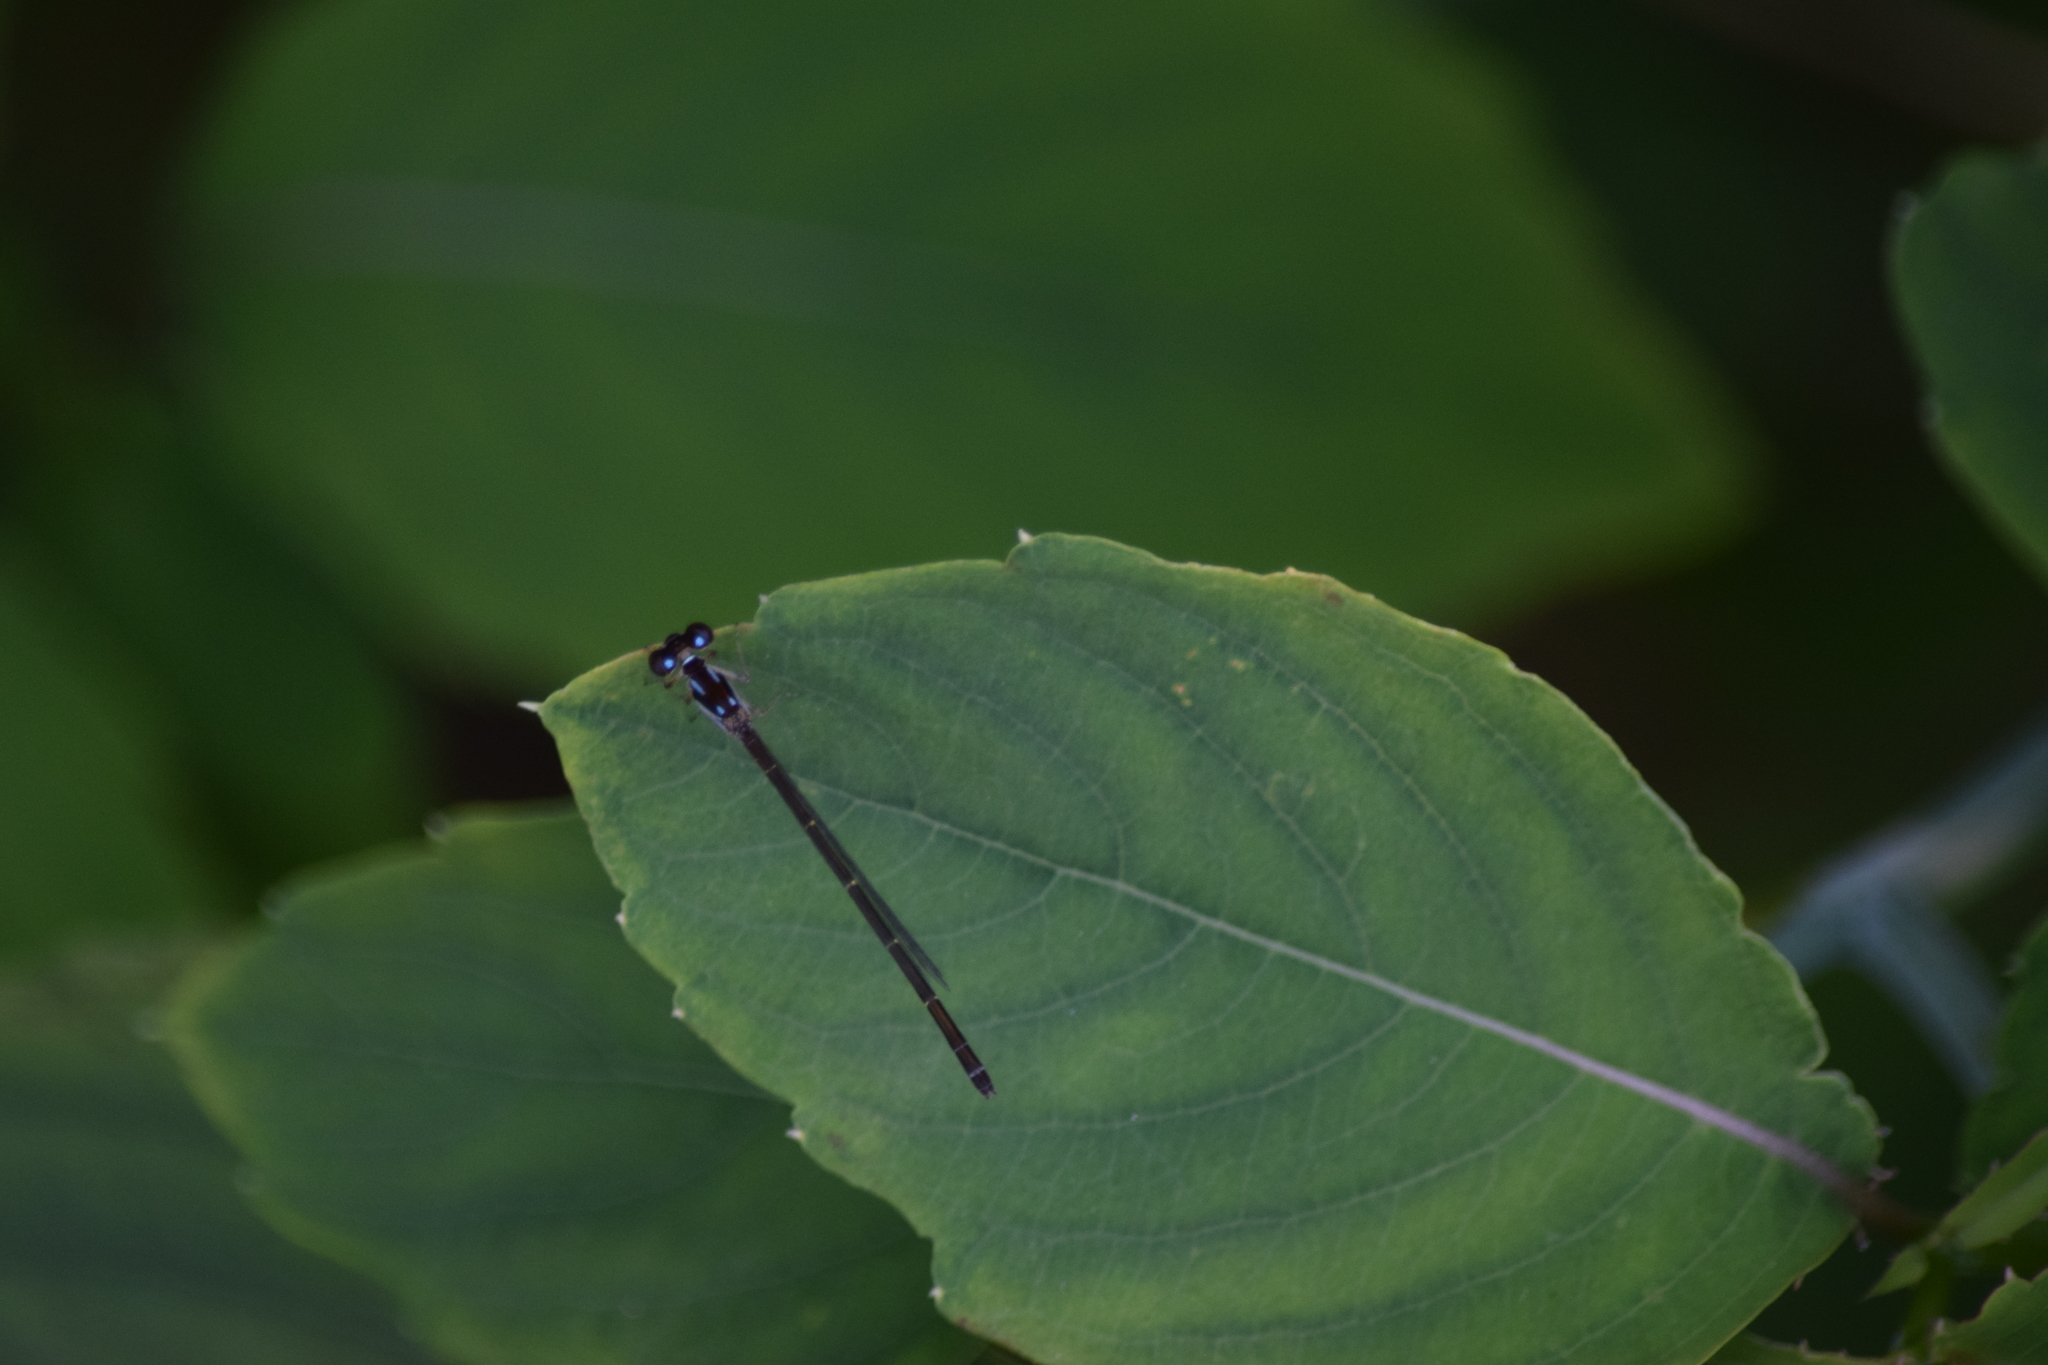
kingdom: Animalia
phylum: Arthropoda
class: Insecta
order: Odonata
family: Coenagrionidae
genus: Ischnura
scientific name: Ischnura posita
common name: Fragile forktail
